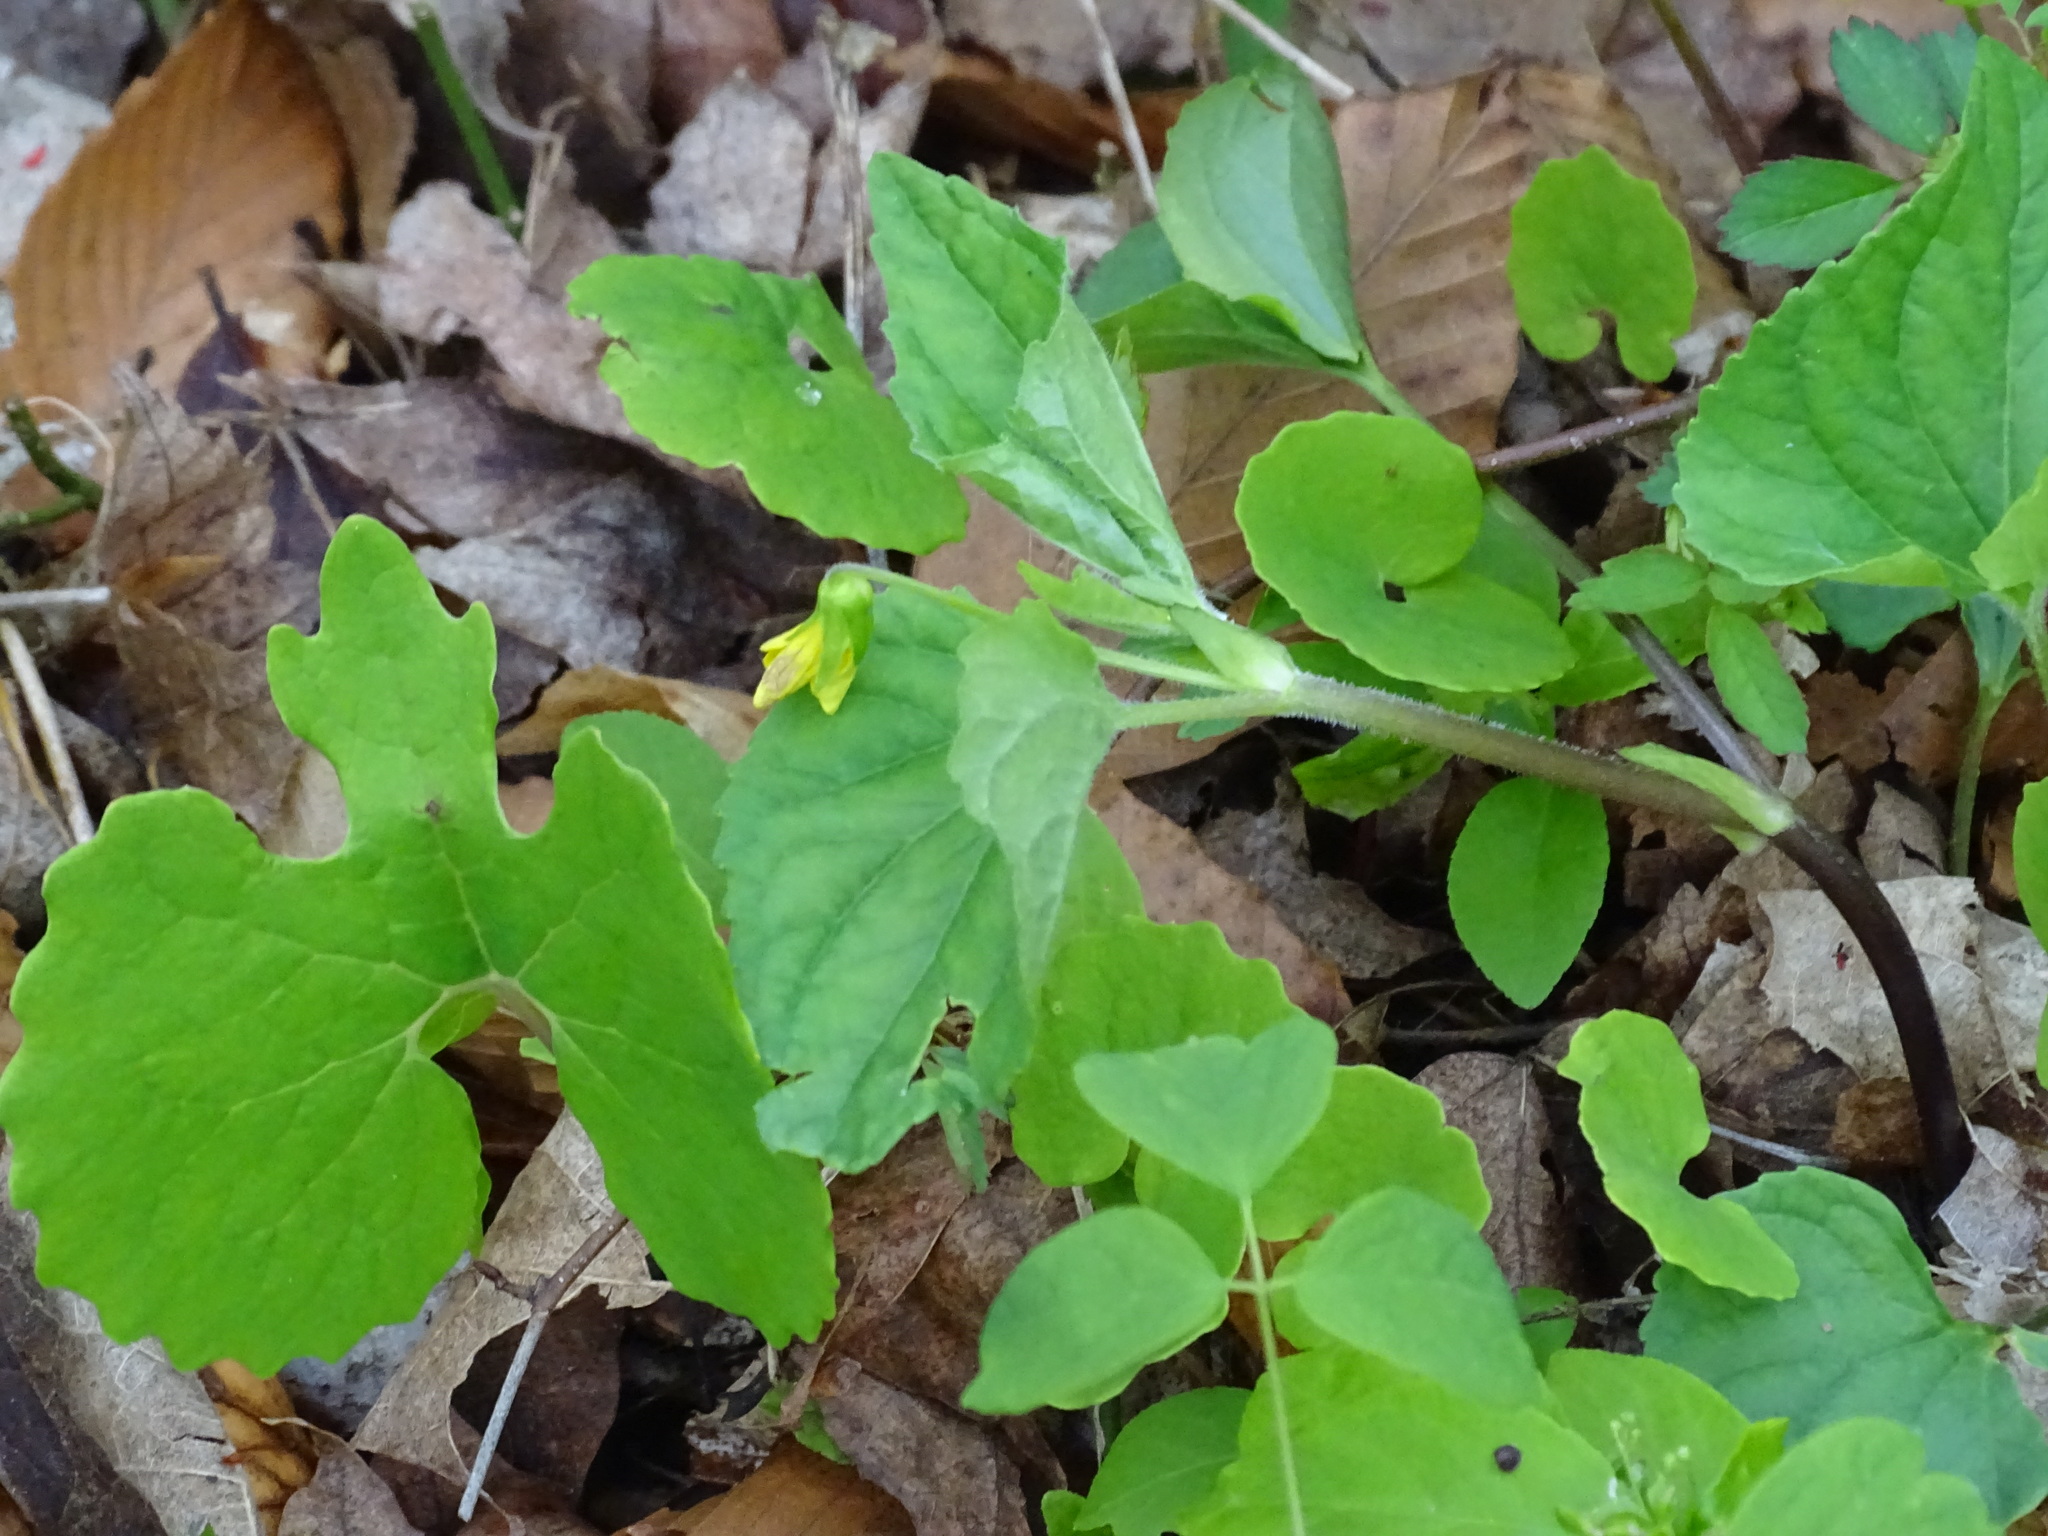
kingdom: Plantae
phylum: Tracheophyta
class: Magnoliopsida
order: Malpighiales
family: Violaceae
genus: Viola
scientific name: Viola eriocarpa
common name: Smooth yellow violet
